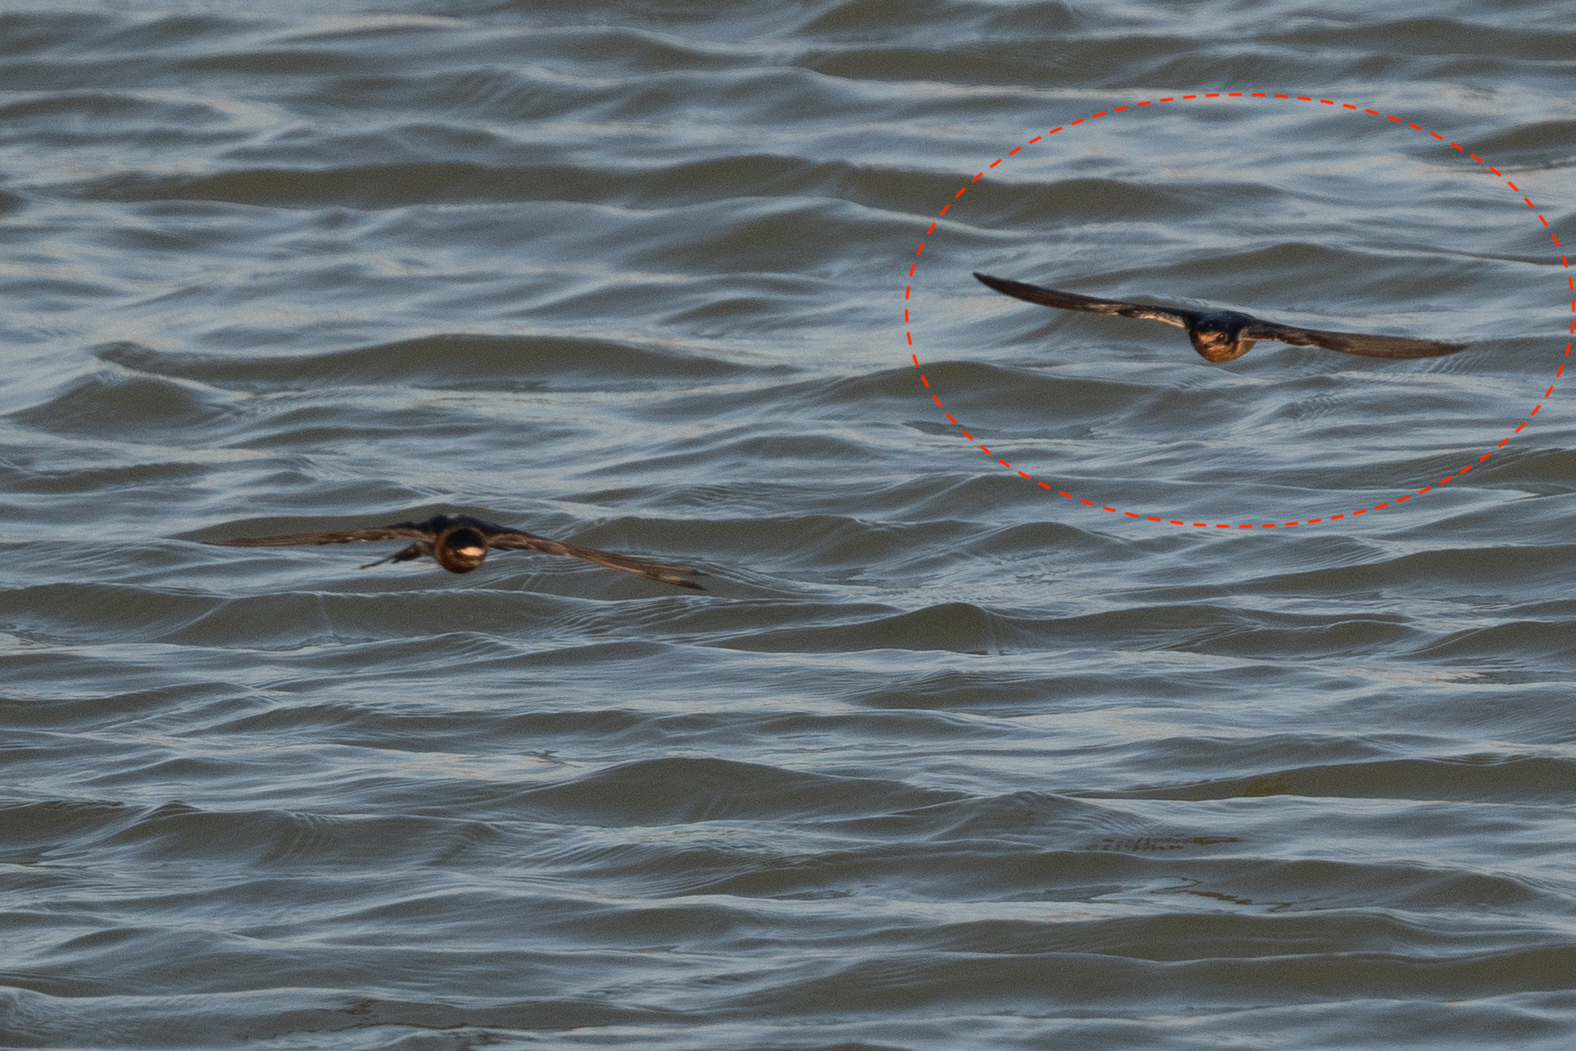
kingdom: Animalia
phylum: Chordata
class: Aves
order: Passeriformes
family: Hirundinidae
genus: Hirundo
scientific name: Hirundo rustica
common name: Barn swallow
